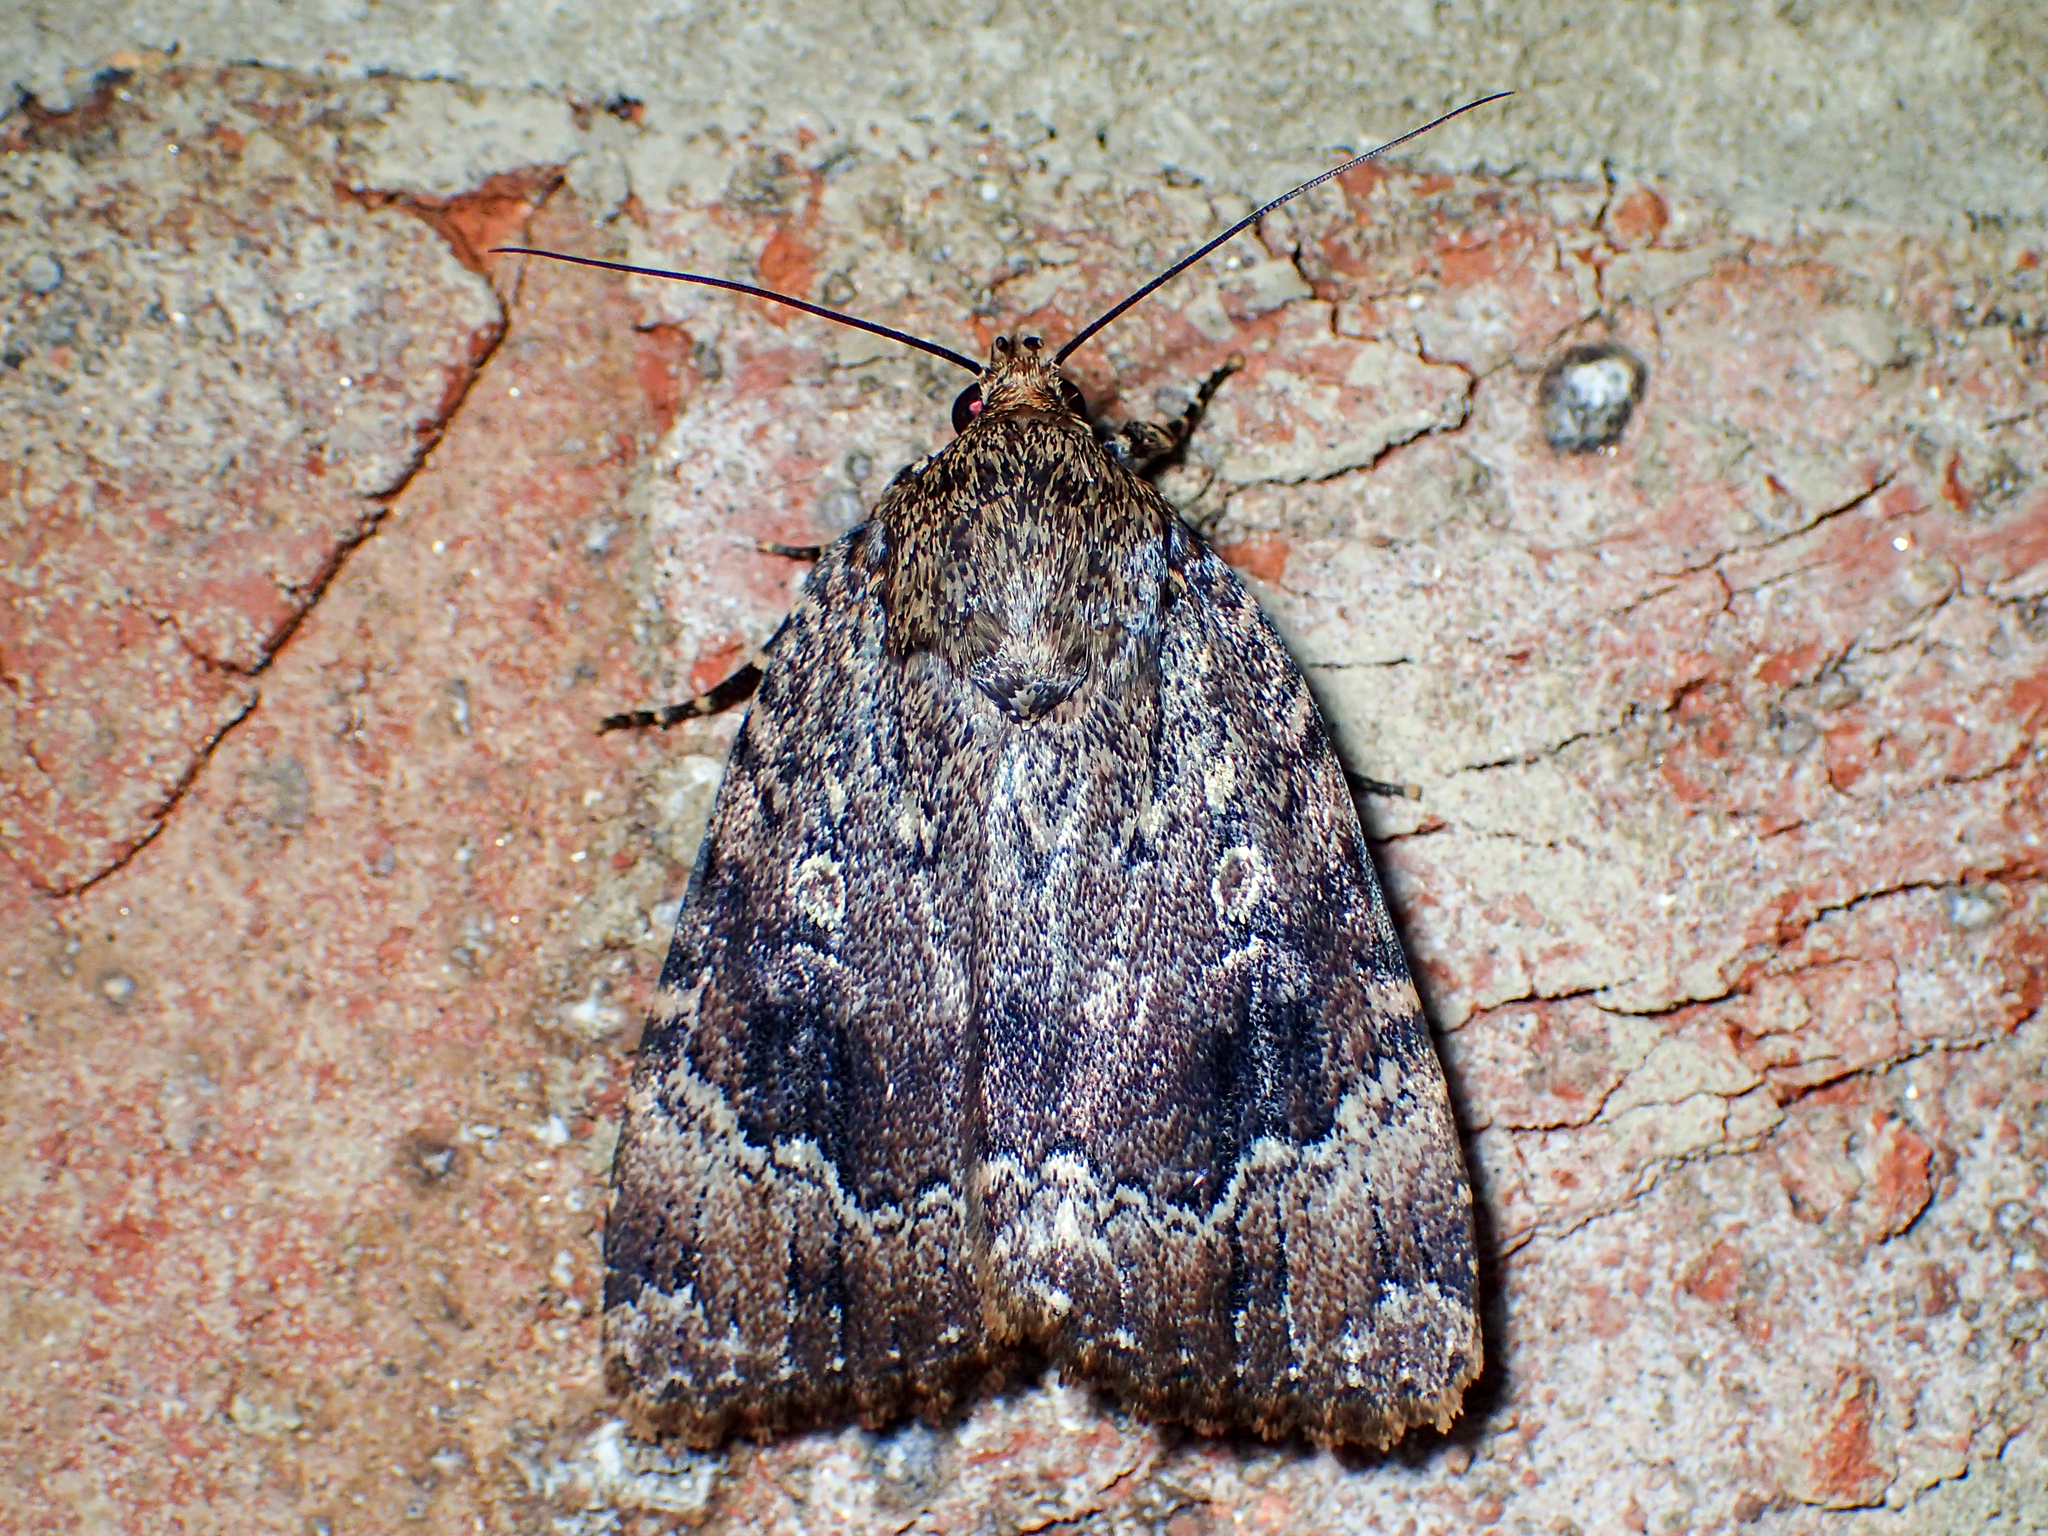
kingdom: Animalia
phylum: Arthropoda
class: Insecta
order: Lepidoptera
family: Noctuidae
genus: Amphipyra
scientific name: Amphipyra pyramidoides
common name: American copper underwing
